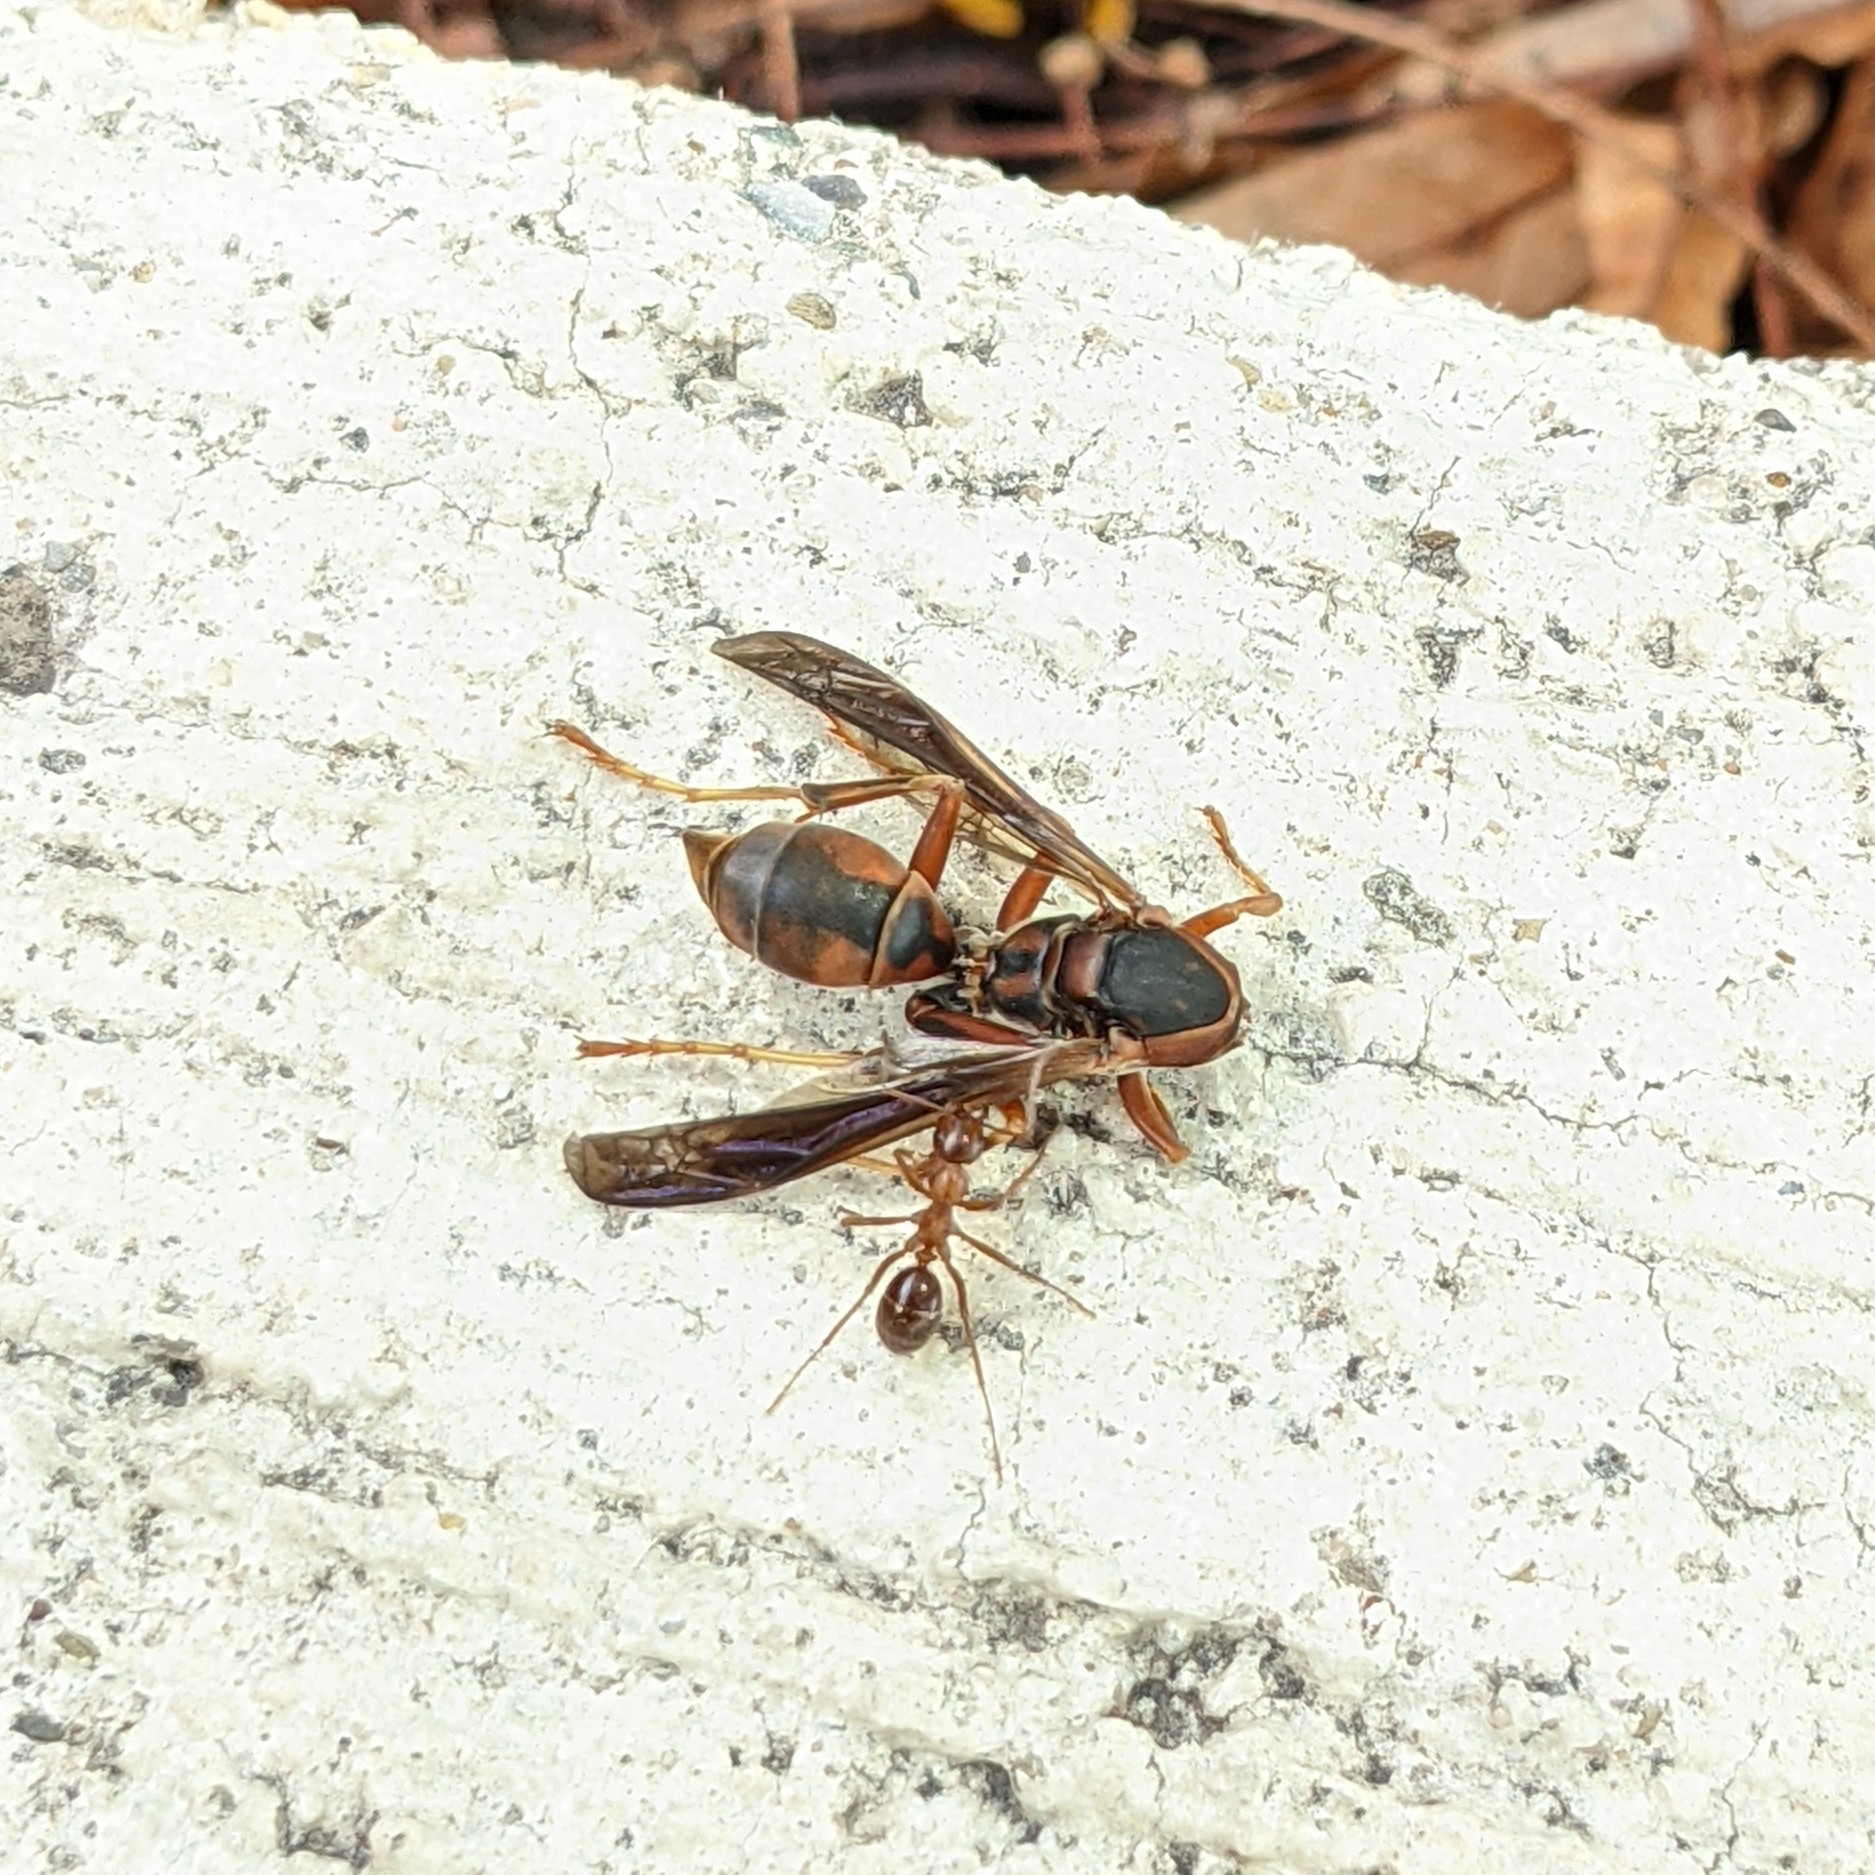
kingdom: Animalia
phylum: Arthropoda
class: Insecta
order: Hymenoptera
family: Eumenidae
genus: Polistes
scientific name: Polistes fuscatus
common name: Dark paper wasp
